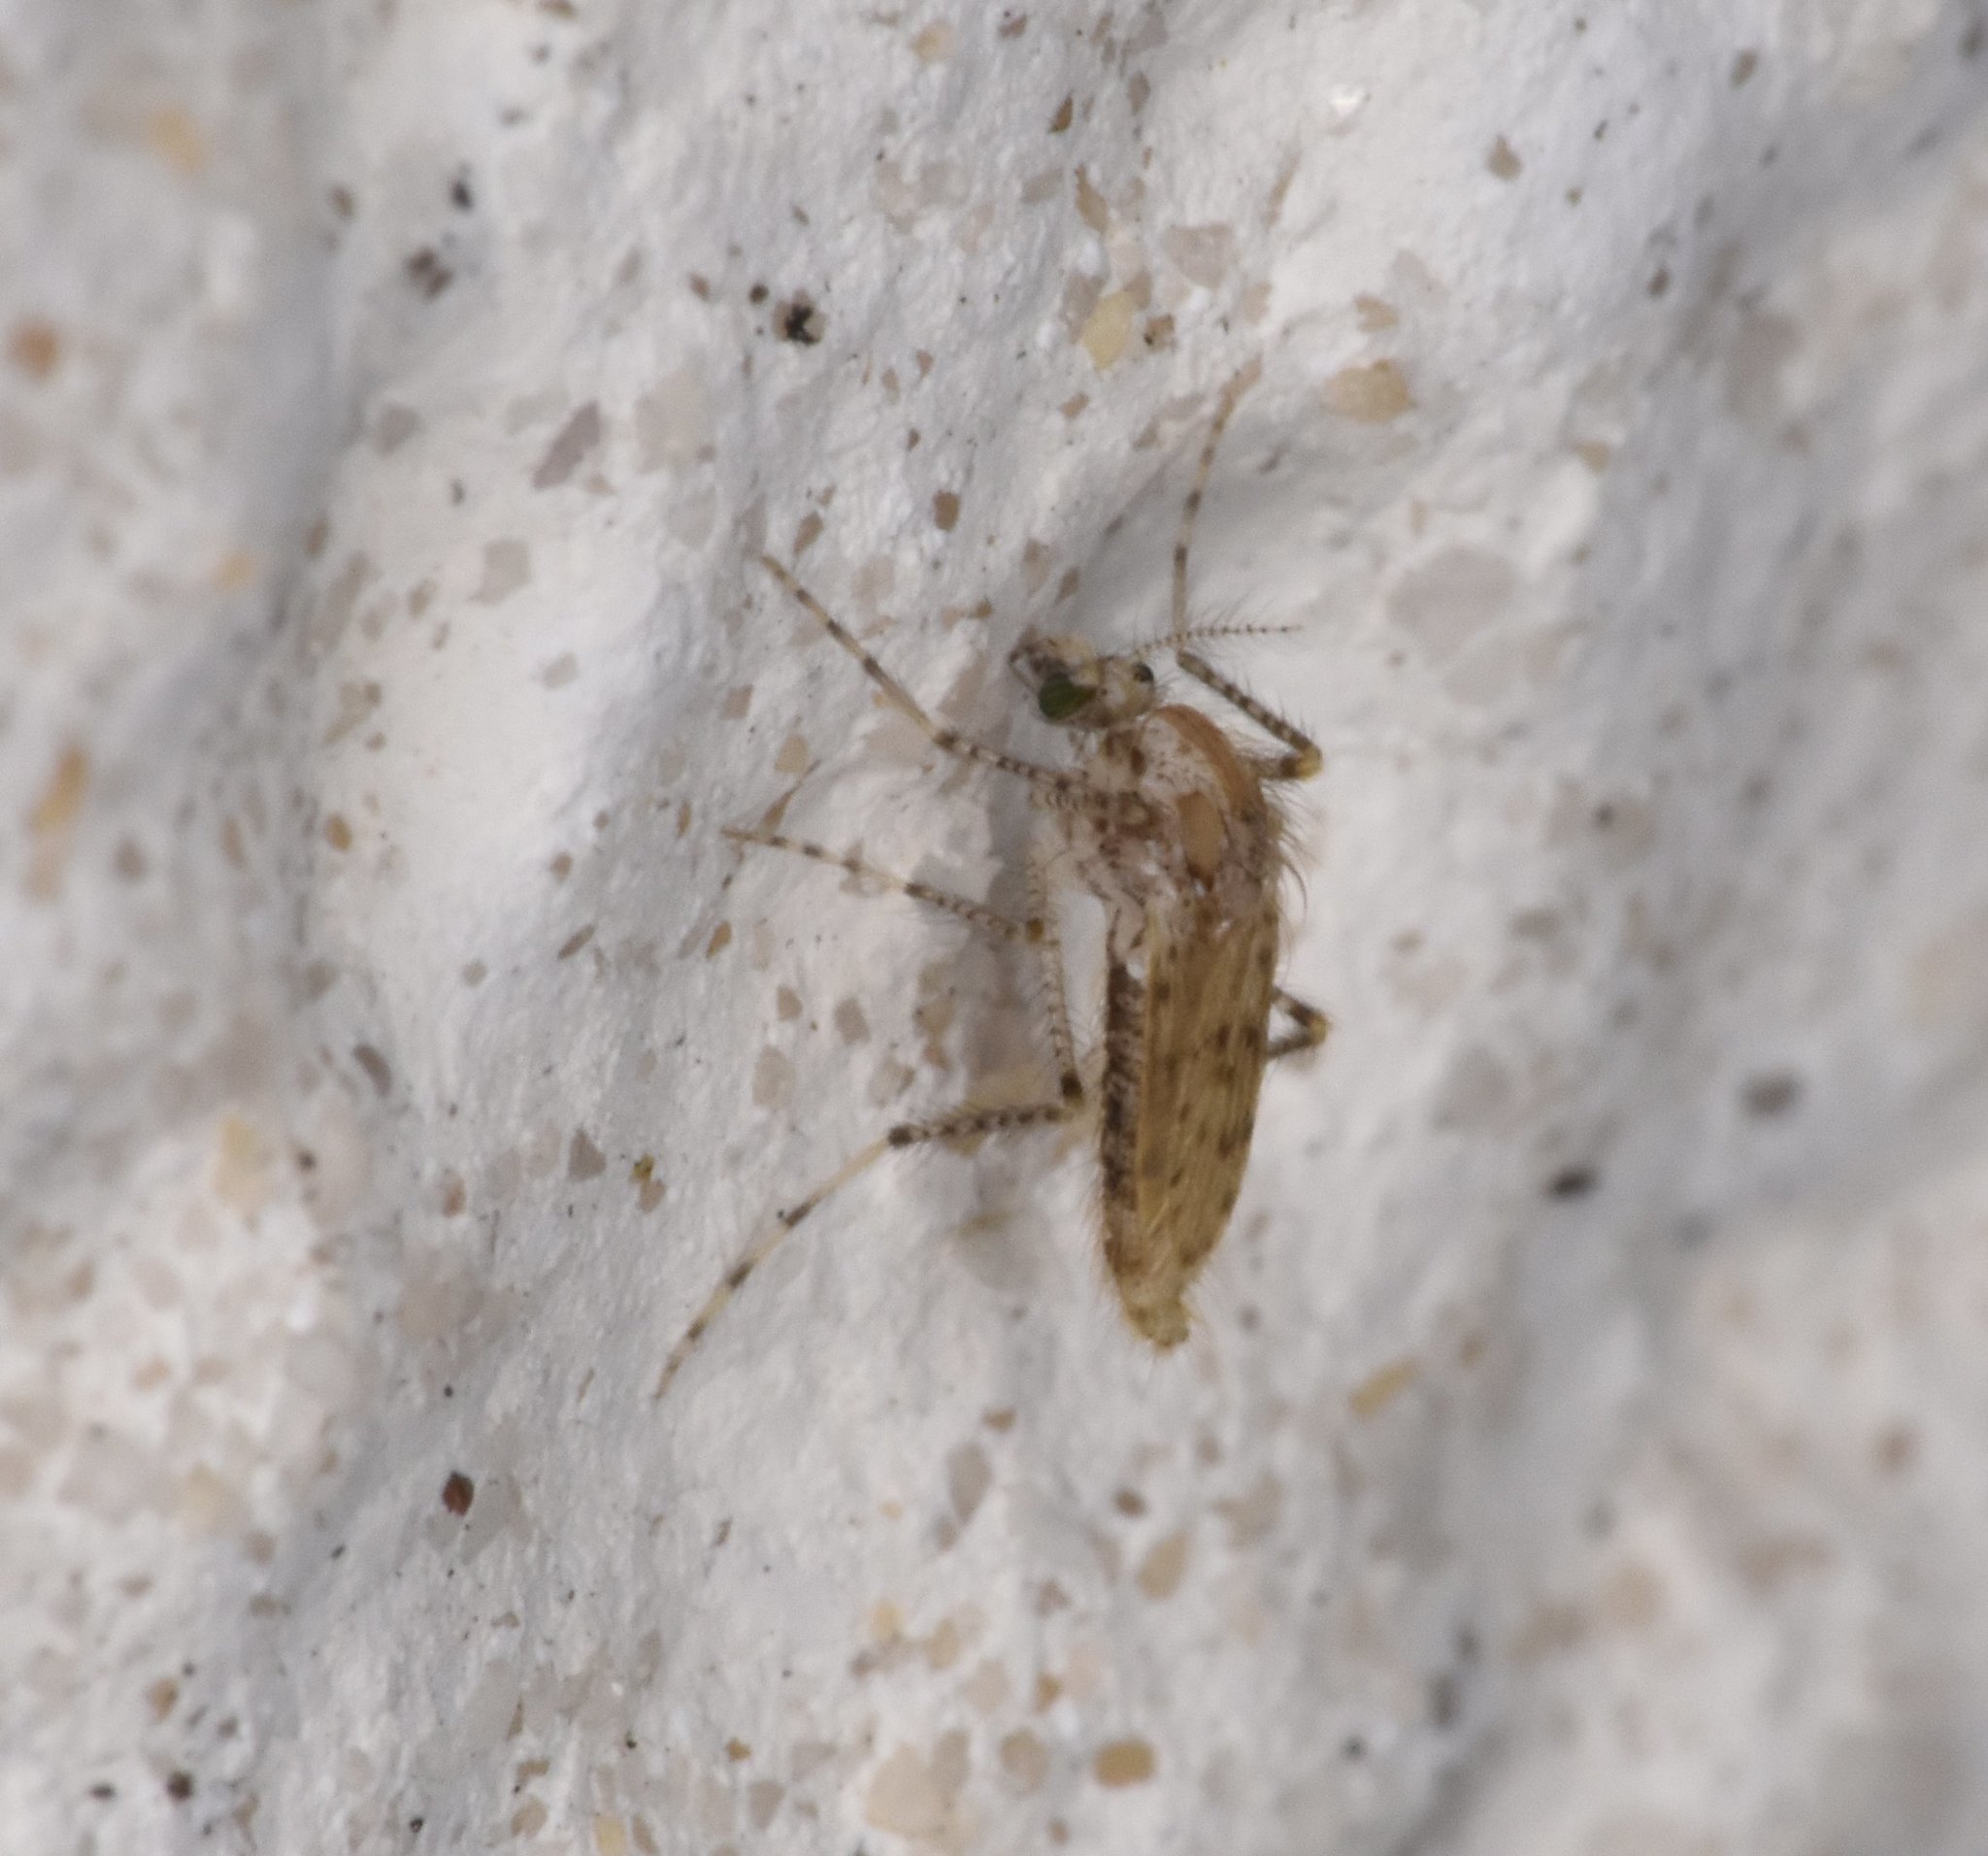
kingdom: Animalia
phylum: Arthropoda
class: Insecta
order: Diptera
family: Chaoboridae
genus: Chaoborus
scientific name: Chaoborus punctipennis
